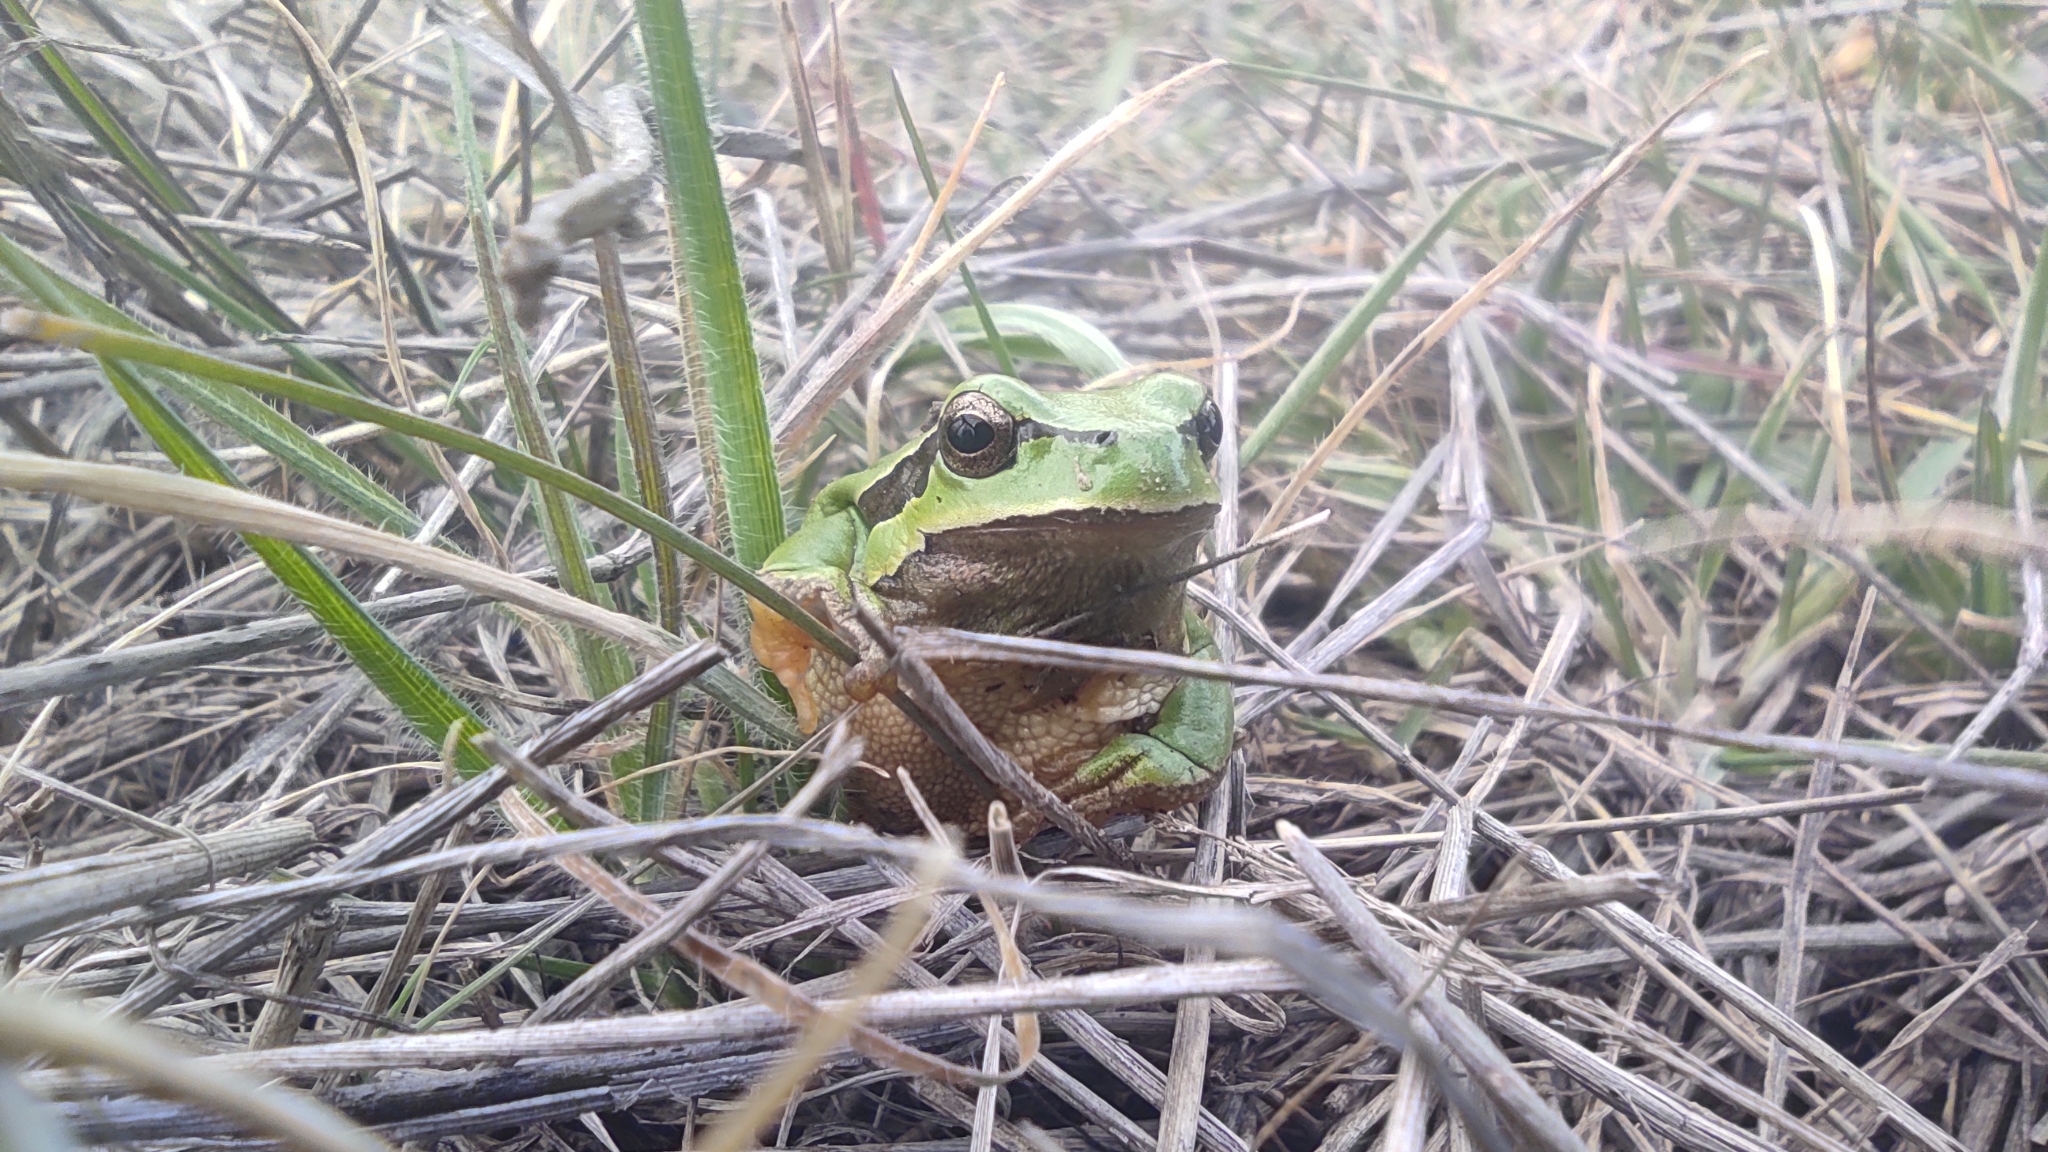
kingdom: Animalia
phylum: Chordata
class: Amphibia
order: Anura
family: Hylidae
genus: Hyla
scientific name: Hyla molleri
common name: Iberian tree frog
